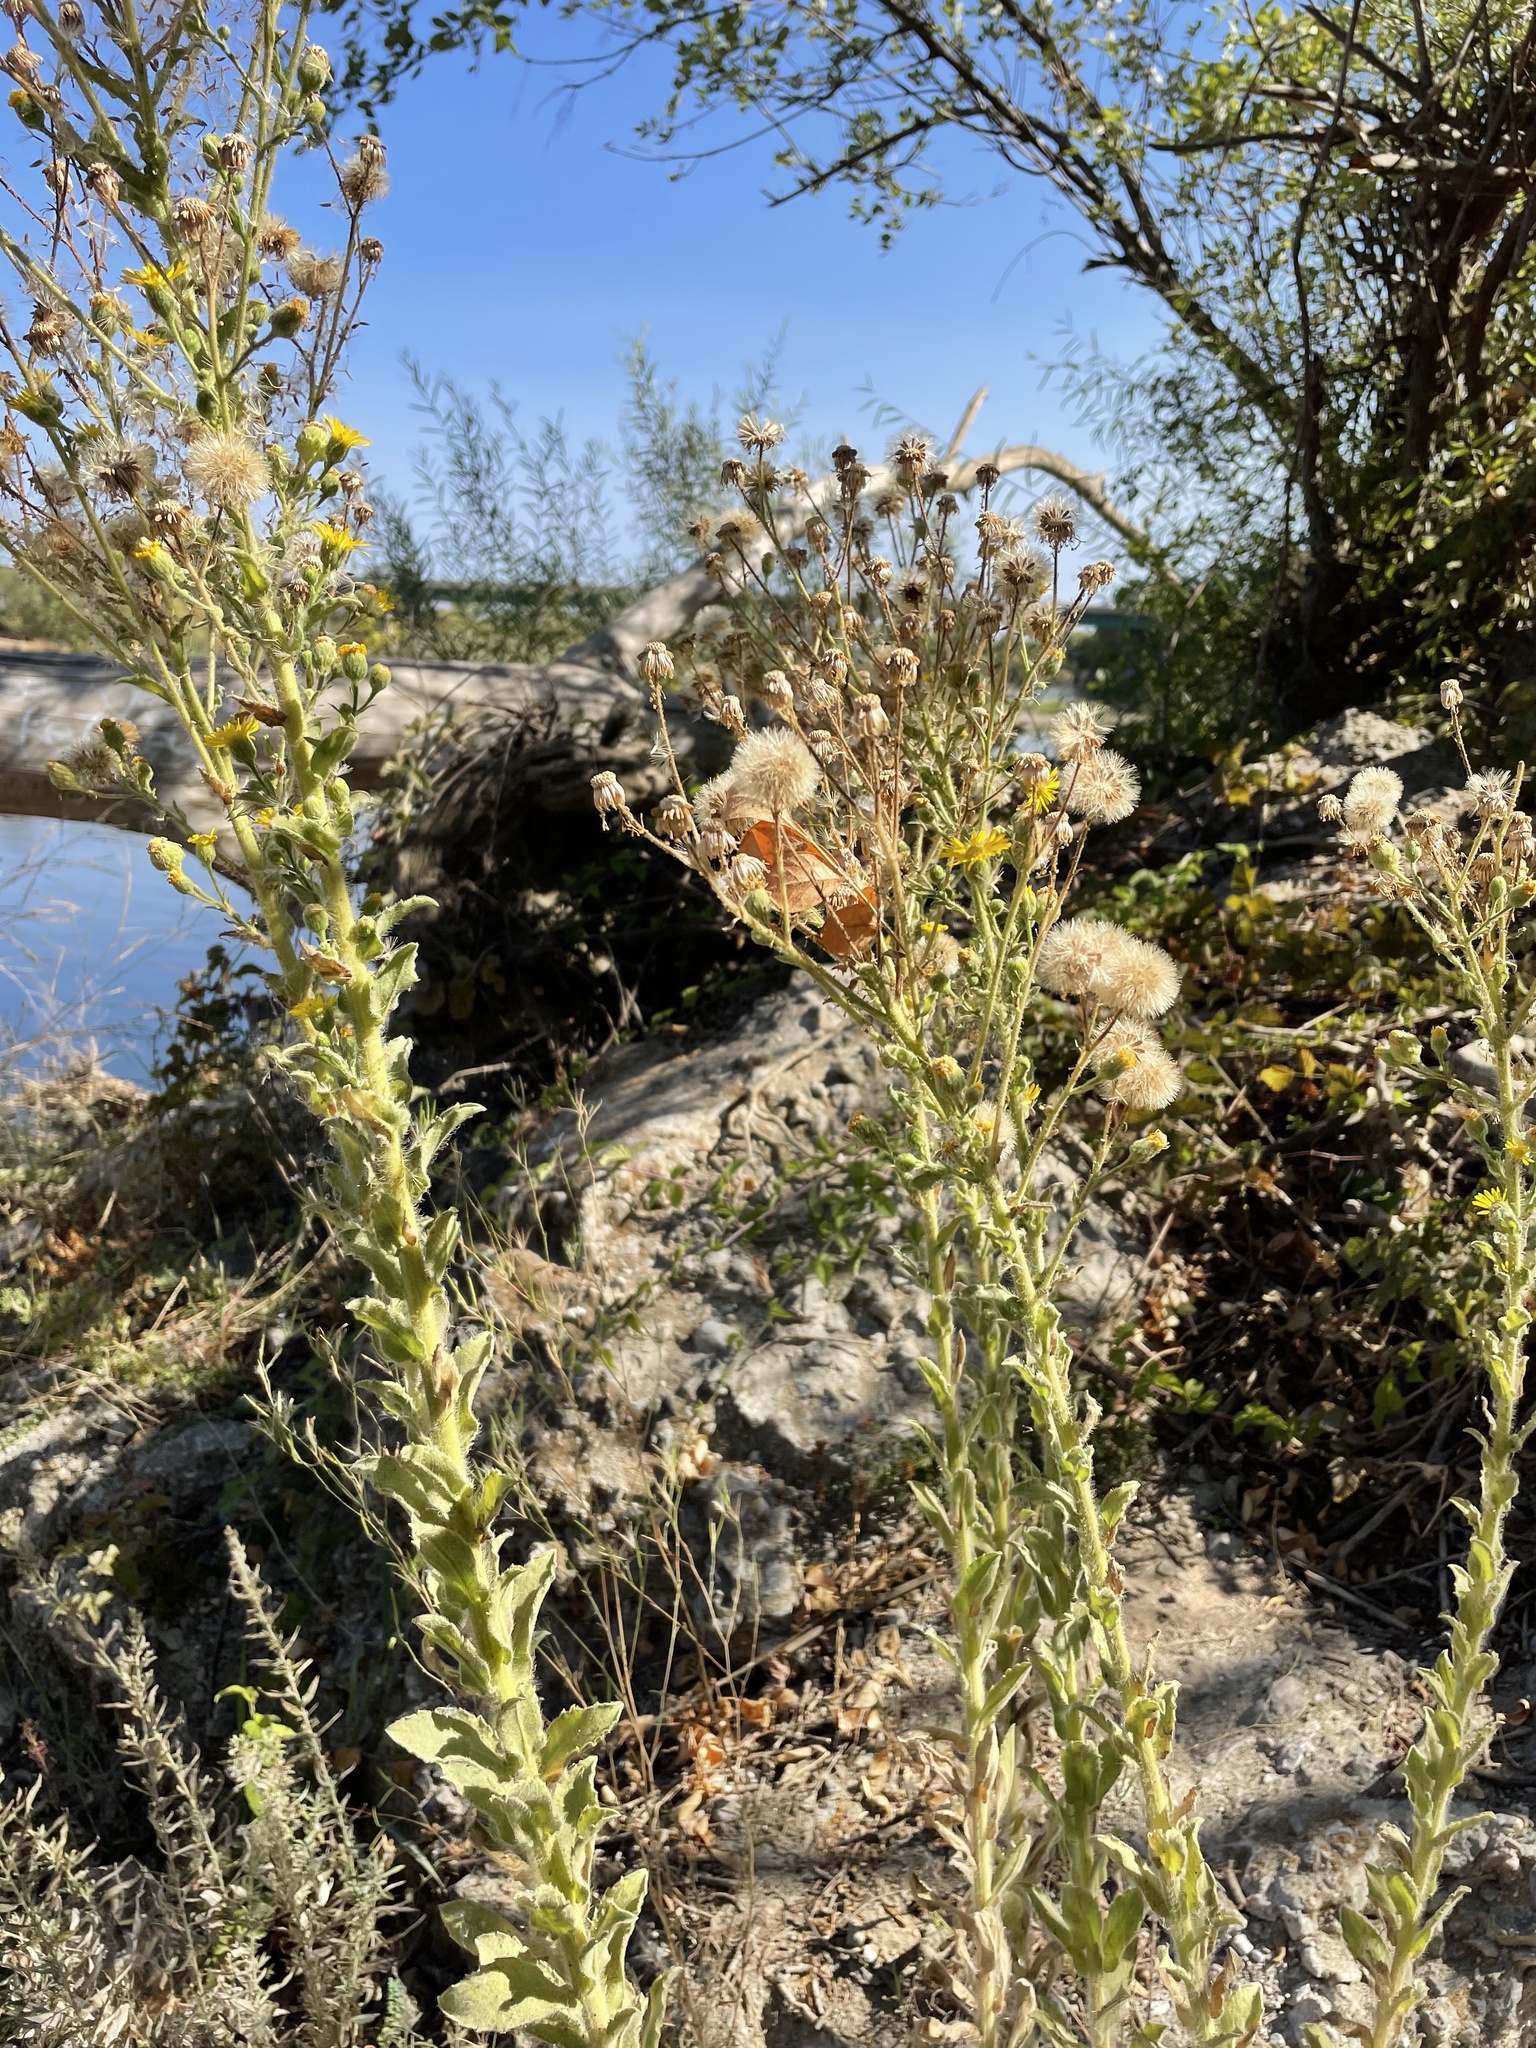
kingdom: Plantae
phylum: Tracheophyta
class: Magnoliopsida
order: Asterales
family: Asteraceae
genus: Heterotheca
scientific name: Heterotheca grandiflora
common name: Telegraphweed
